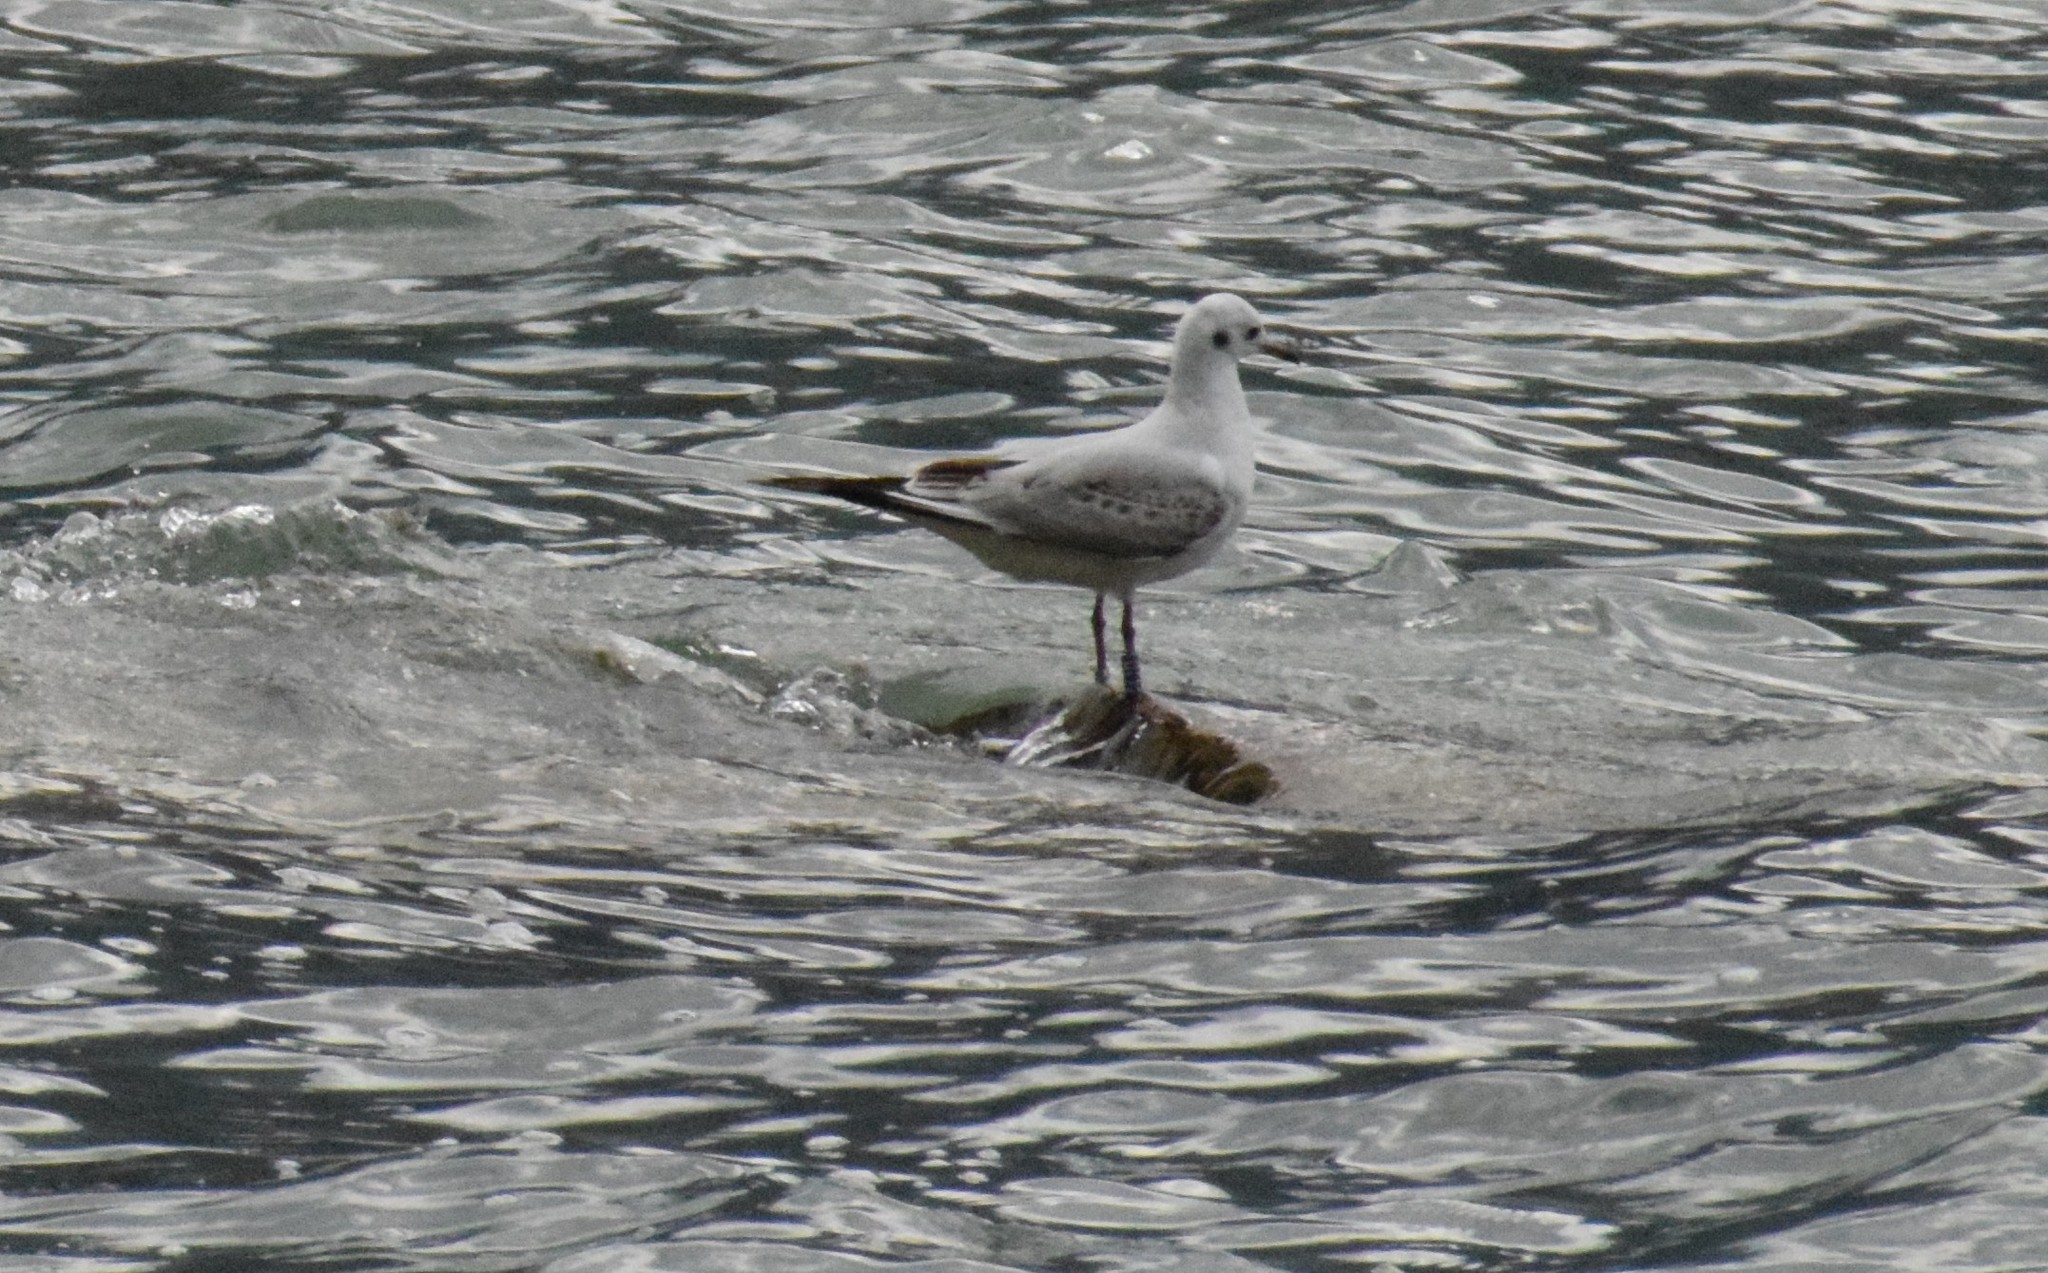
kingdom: Animalia
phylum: Chordata
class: Aves
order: Charadriiformes
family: Laridae
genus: Chroicocephalus
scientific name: Chroicocephalus ridibundus
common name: Black-headed gull
